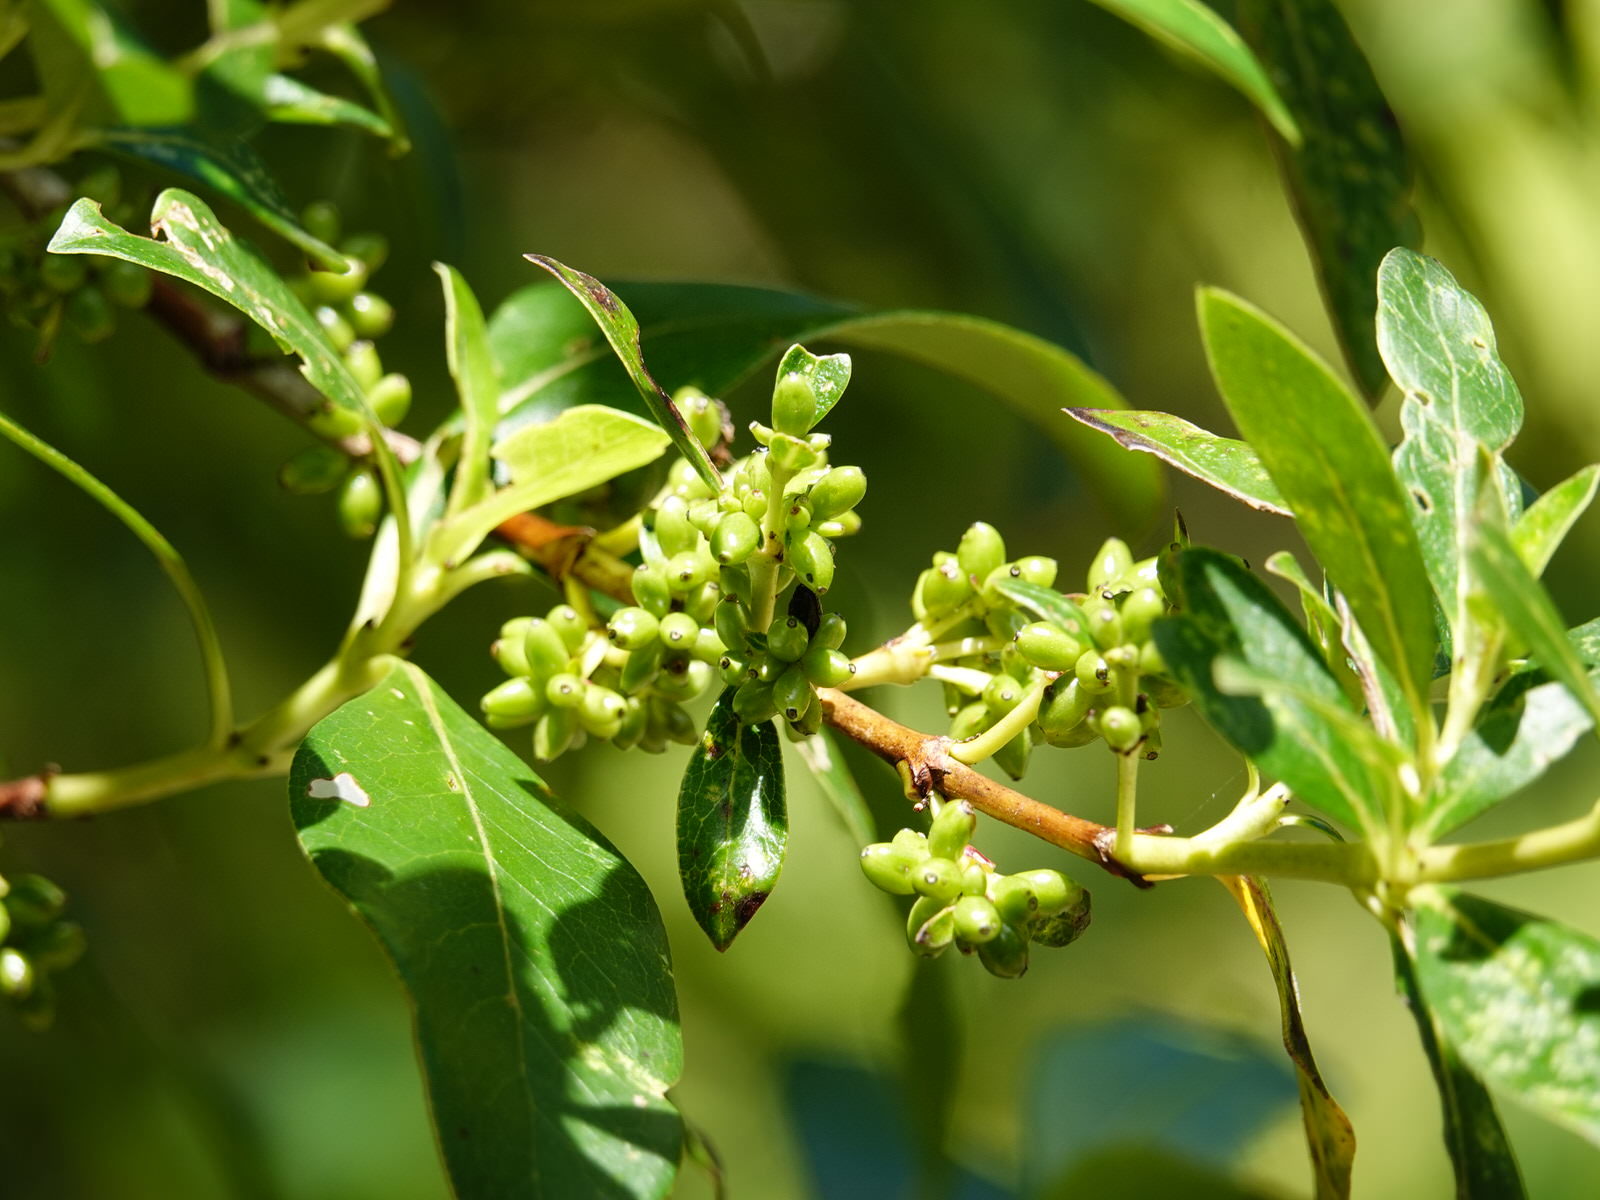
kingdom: Plantae
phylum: Tracheophyta
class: Magnoliopsida
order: Gentianales
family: Rubiaceae
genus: Coprosma
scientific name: Coprosma robusta
